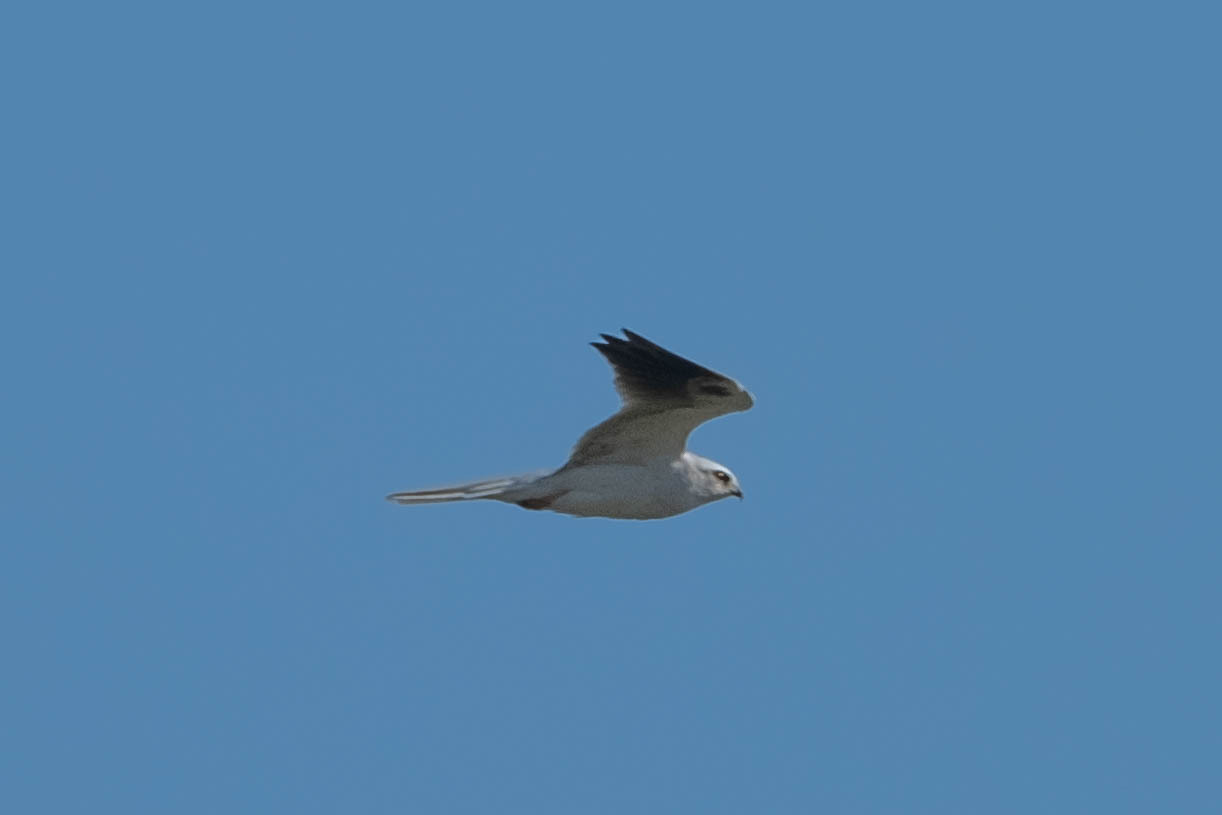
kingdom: Animalia
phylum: Chordata
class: Aves
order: Accipitriformes
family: Accipitridae
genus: Elanus
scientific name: Elanus leucurus
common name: White-tailed kite
